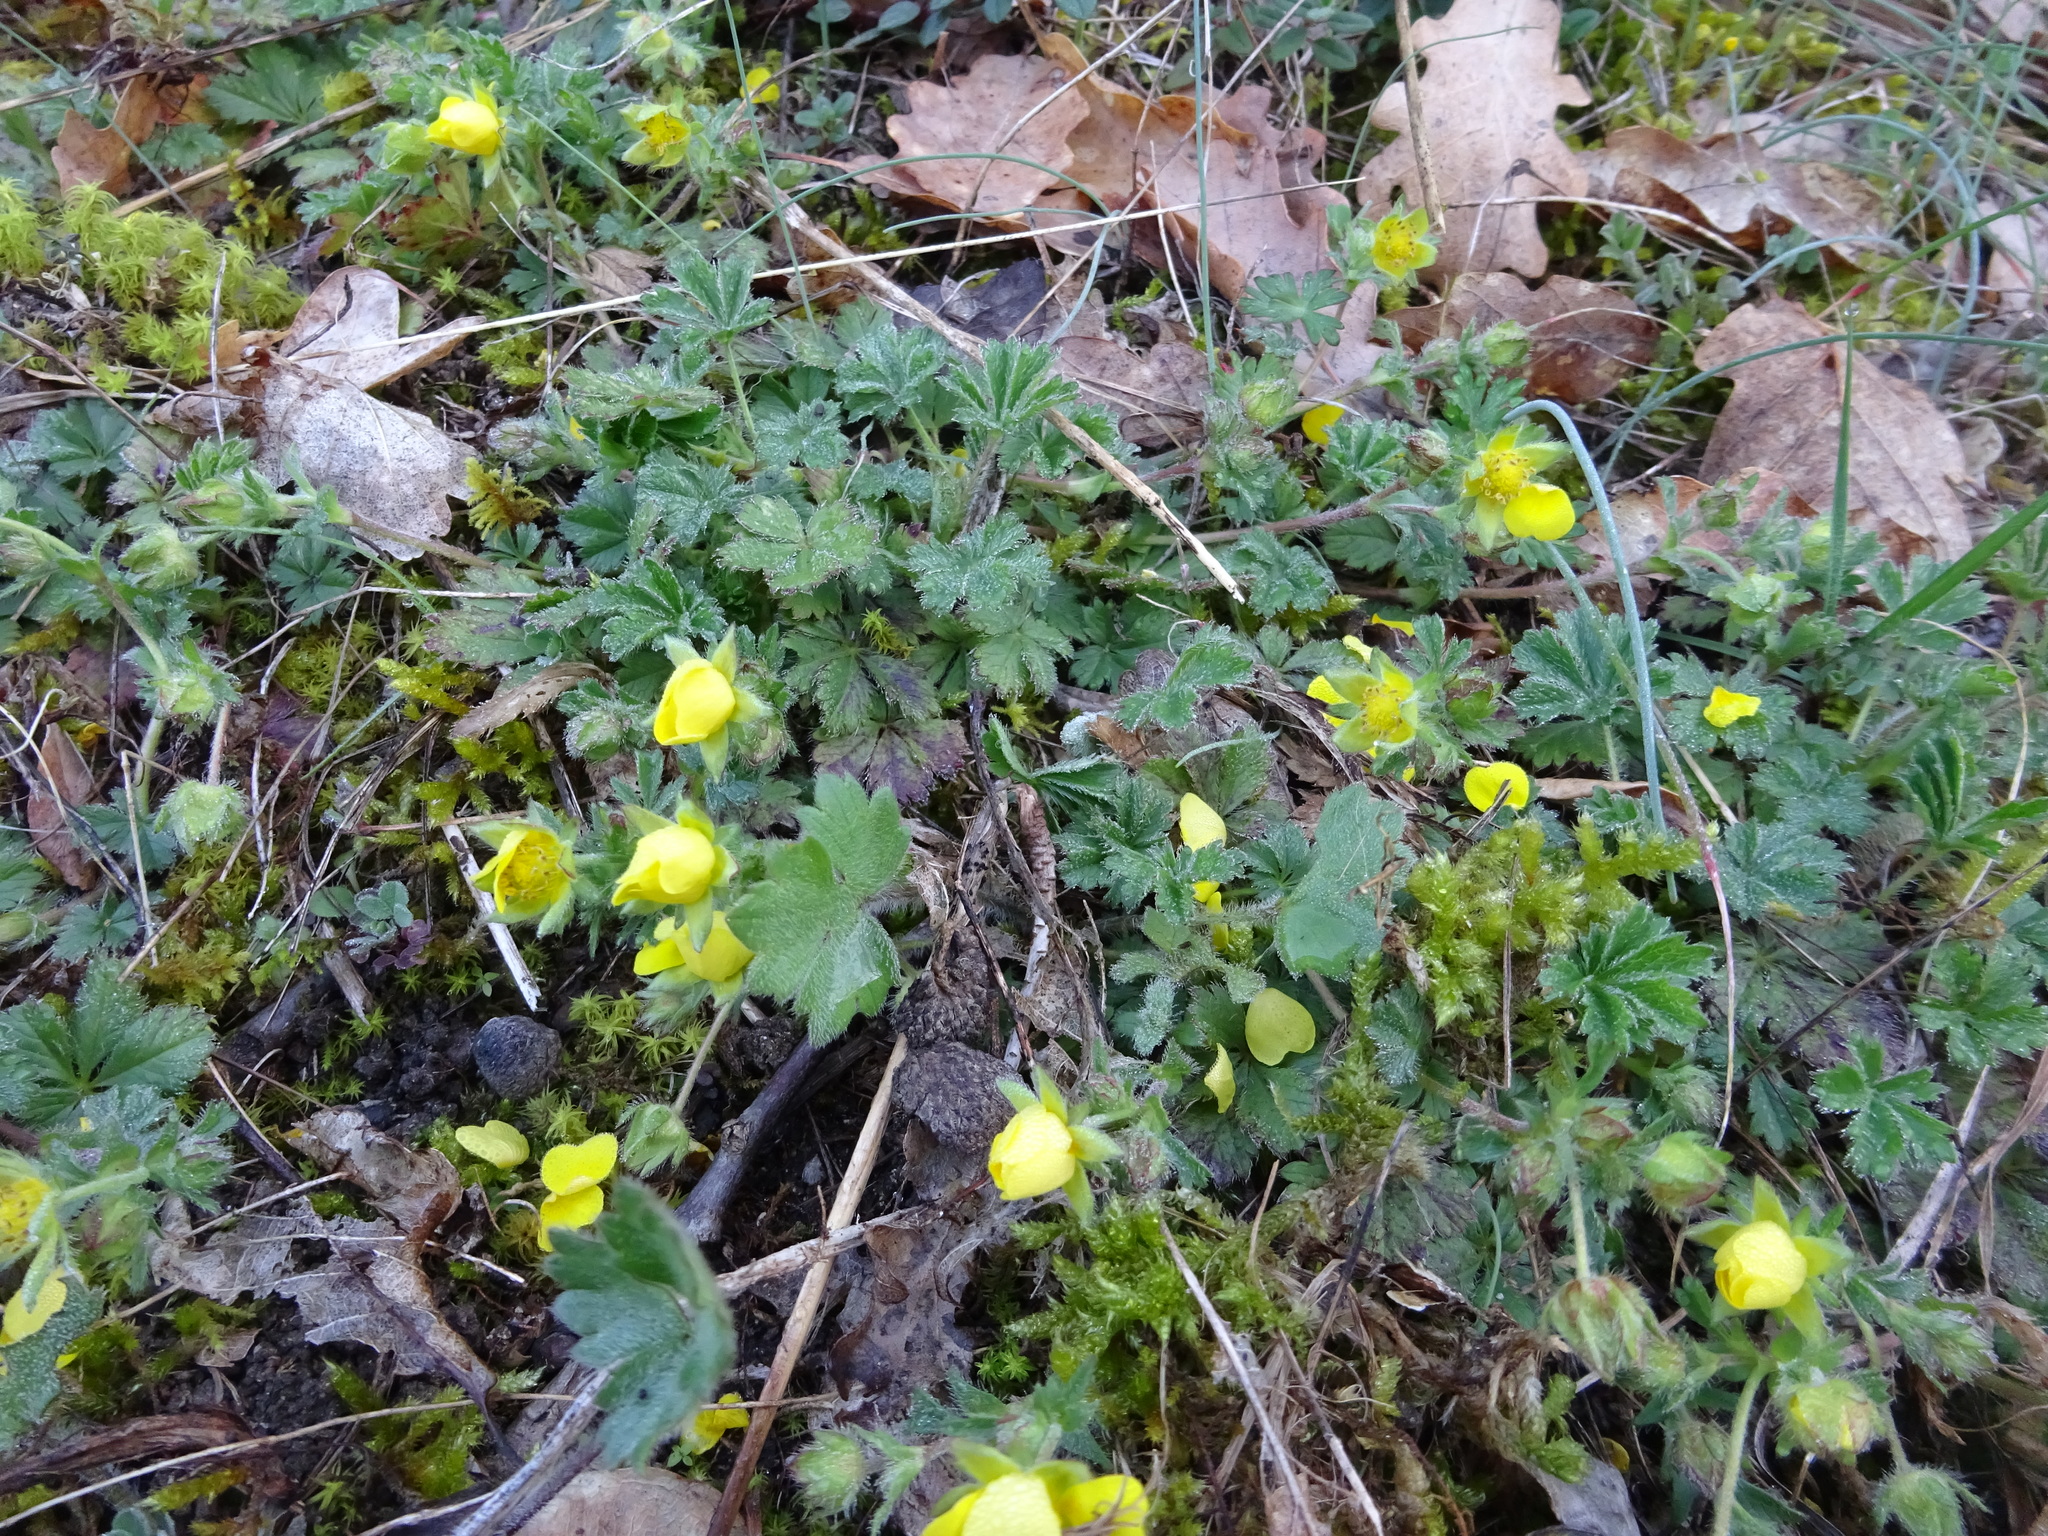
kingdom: Plantae
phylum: Tracheophyta
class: Magnoliopsida
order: Rosales
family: Rosaceae
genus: Potentilla
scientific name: Potentilla verna
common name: Spring cinquefoil
